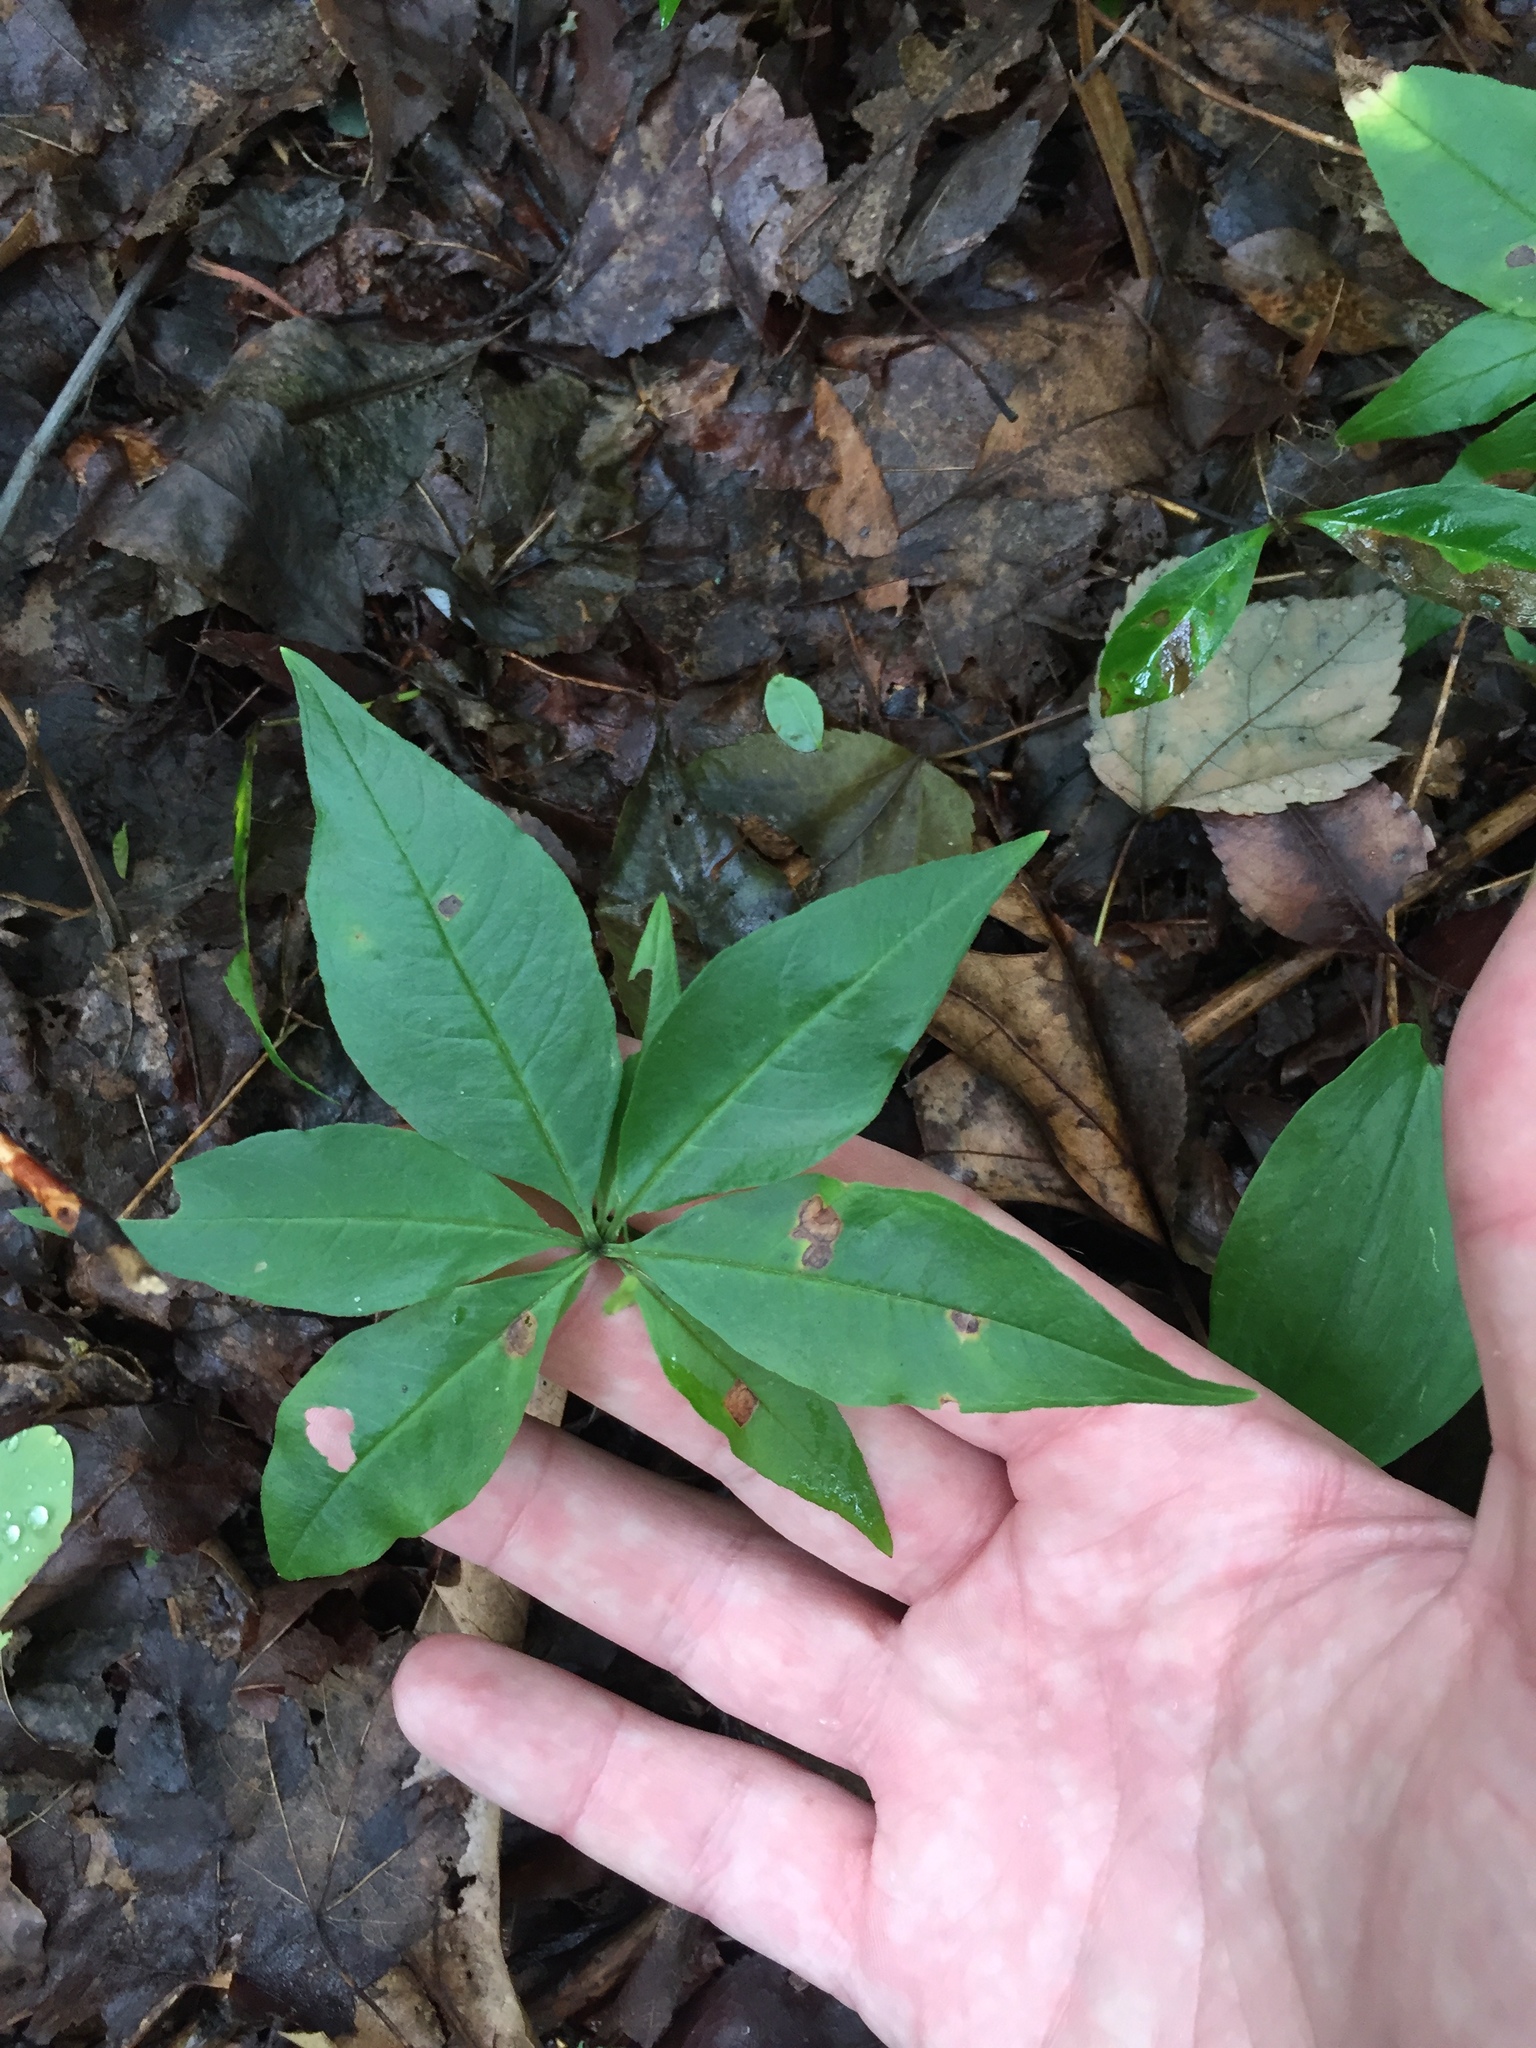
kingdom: Plantae
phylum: Tracheophyta
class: Magnoliopsida
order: Ericales
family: Primulaceae
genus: Lysimachia
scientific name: Lysimachia borealis
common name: American starflower
